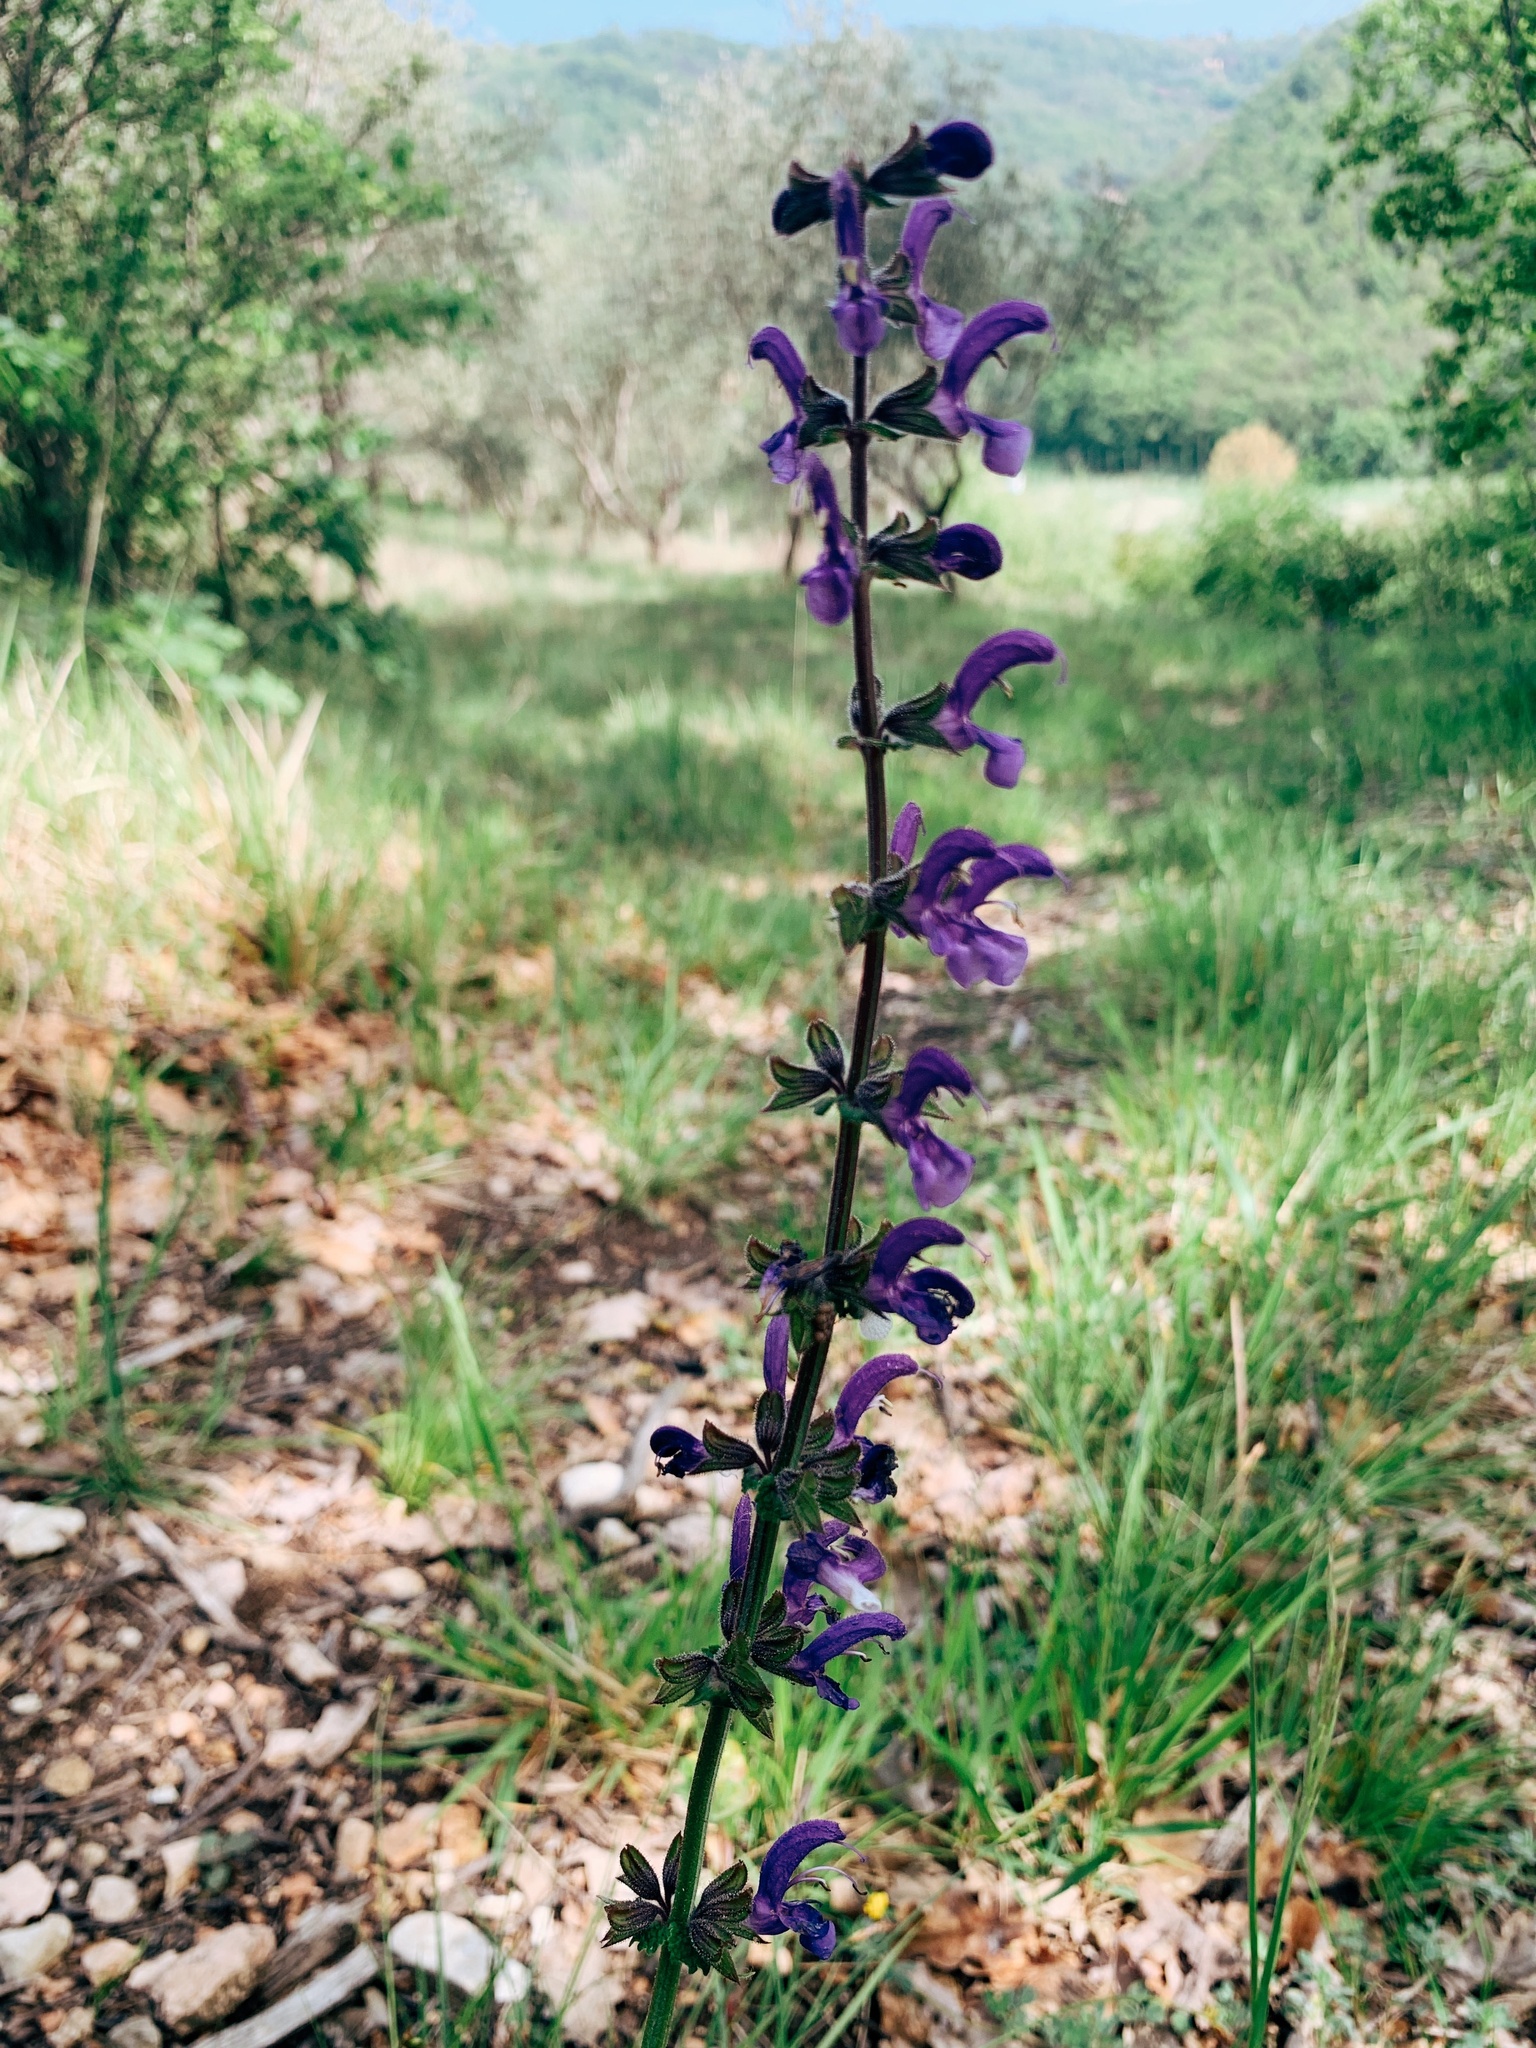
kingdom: Plantae
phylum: Tracheophyta
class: Magnoliopsida
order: Lamiales
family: Lamiaceae
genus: Salvia
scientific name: Salvia pratensis
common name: Meadow sage
